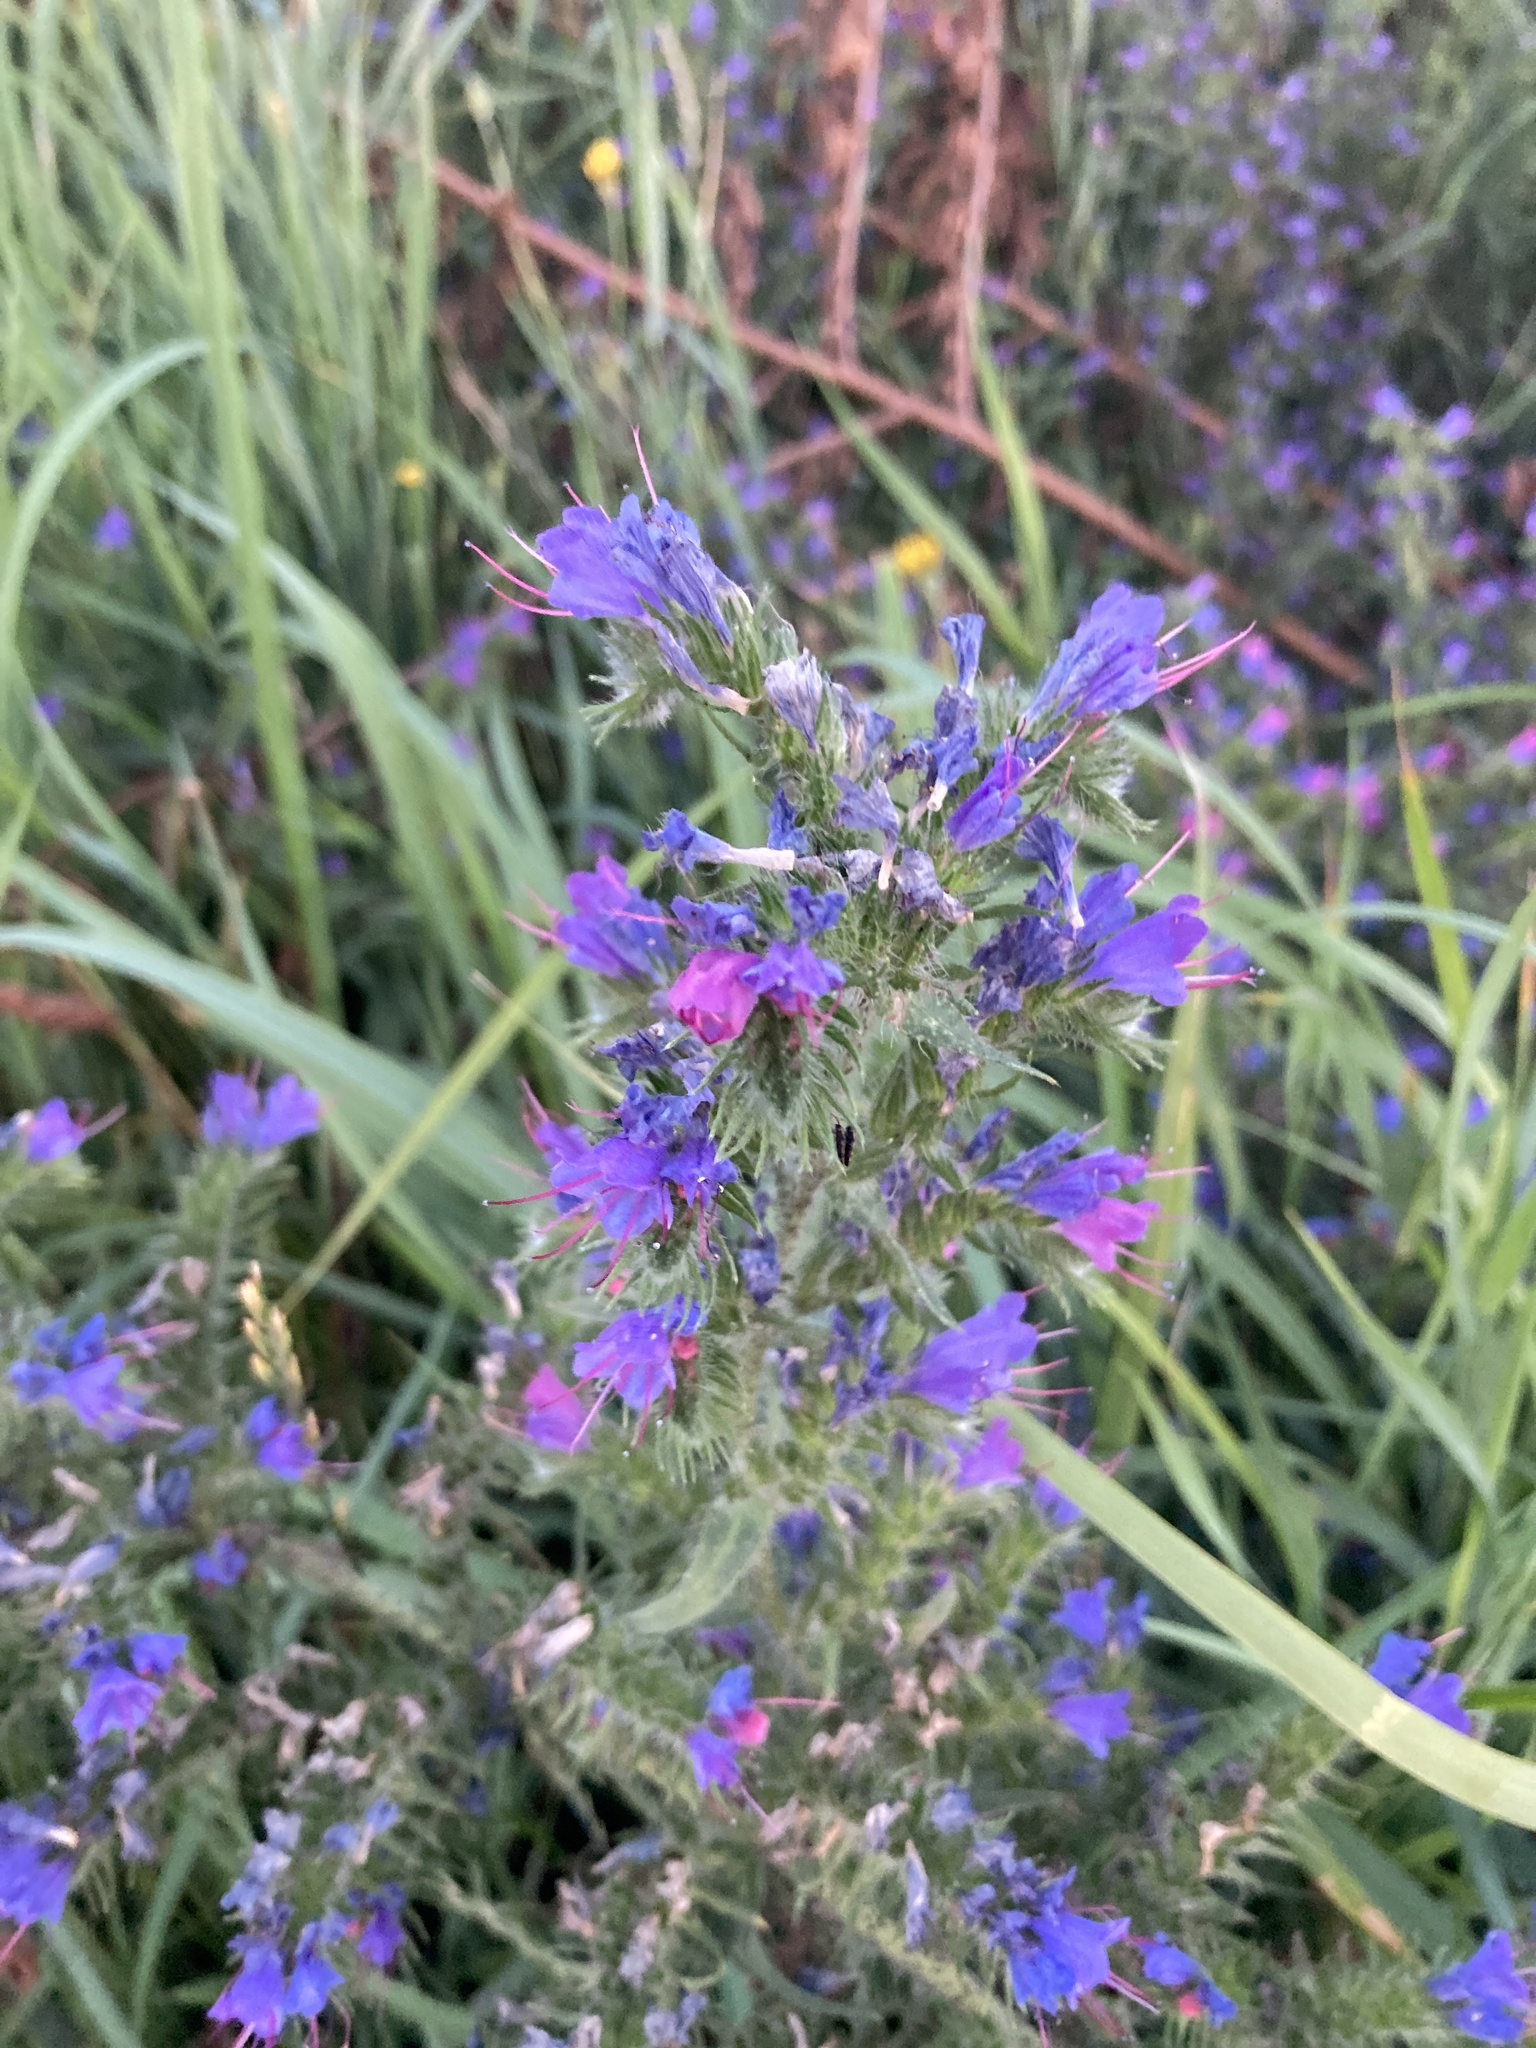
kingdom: Plantae
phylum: Tracheophyta
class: Magnoliopsida
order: Boraginales
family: Boraginaceae
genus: Echium
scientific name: Echium vulgare
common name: Common viper's bugloss
